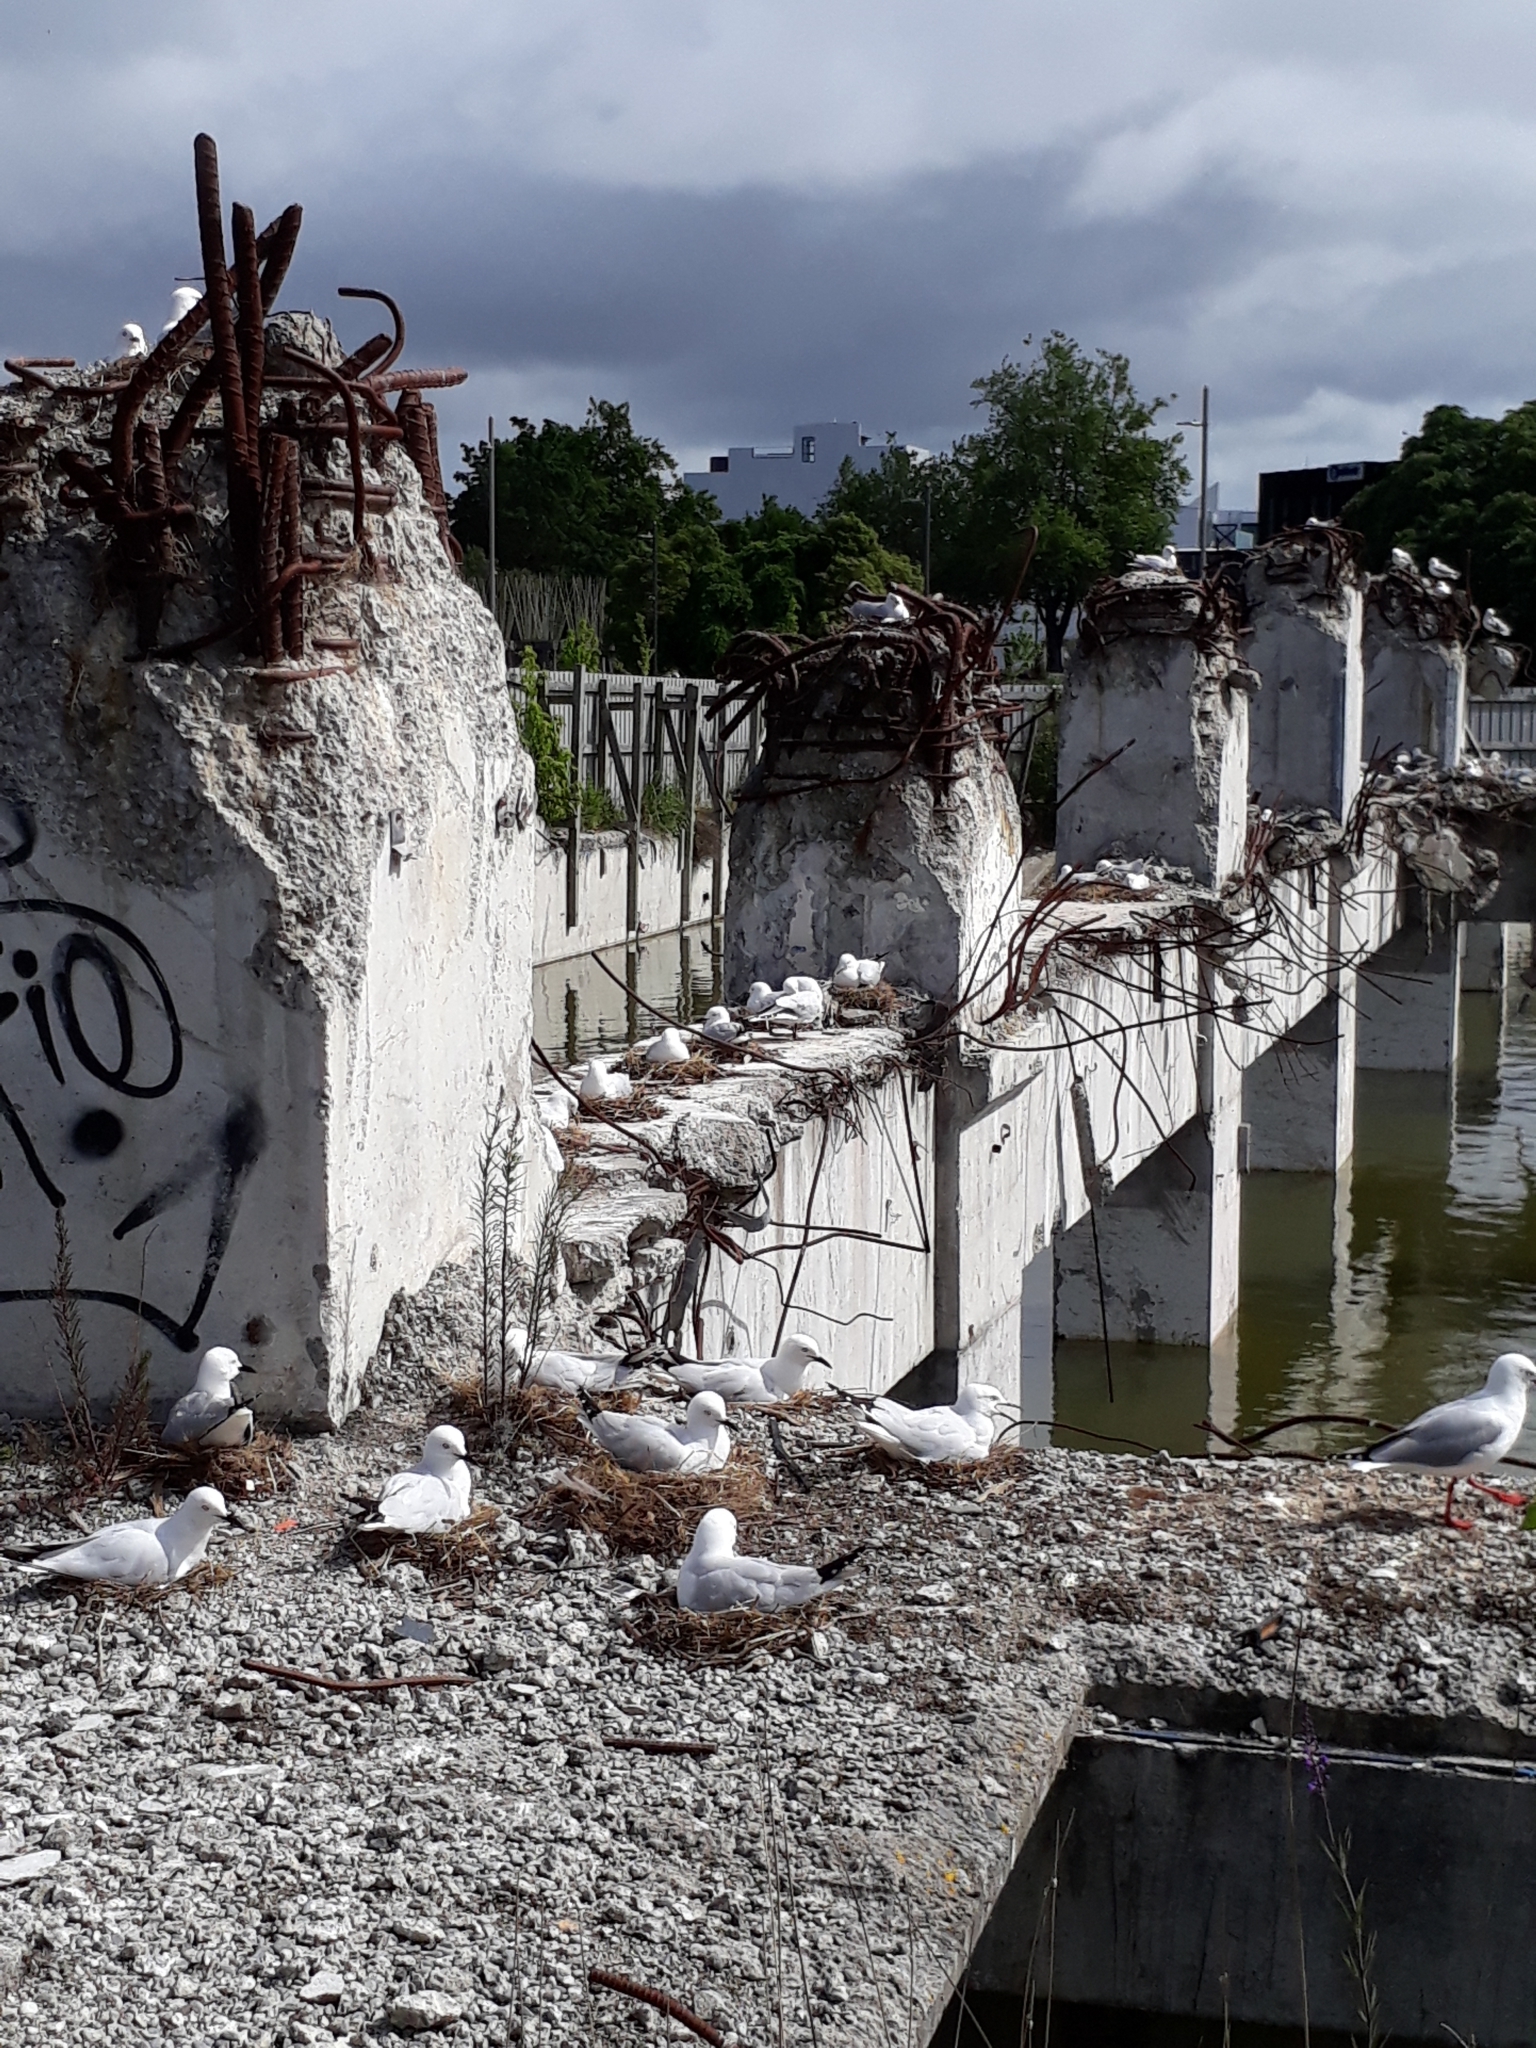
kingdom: Animalia
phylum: Chordata
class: Aves
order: Charadriiformes
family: Laridae
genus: Chroicocephalus
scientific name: Chroicocephalus bulleri
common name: Black-billed gull
